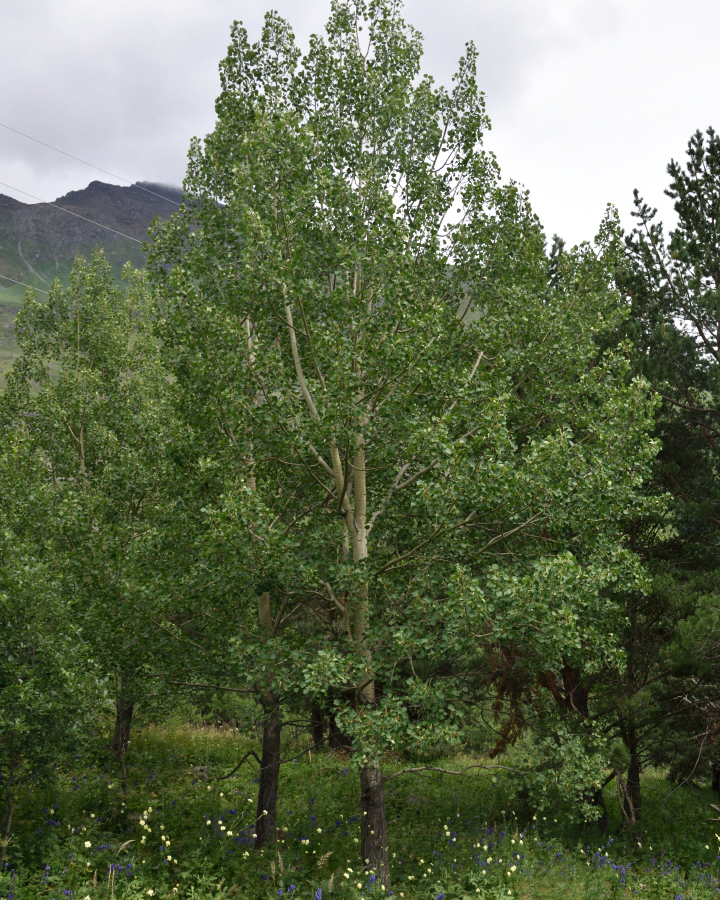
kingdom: Plantae
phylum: Tracheophyta
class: Magnoliopsida
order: Malpighiales
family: Salicaceae
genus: Populus
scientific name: Populus tremula
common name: European aspen
